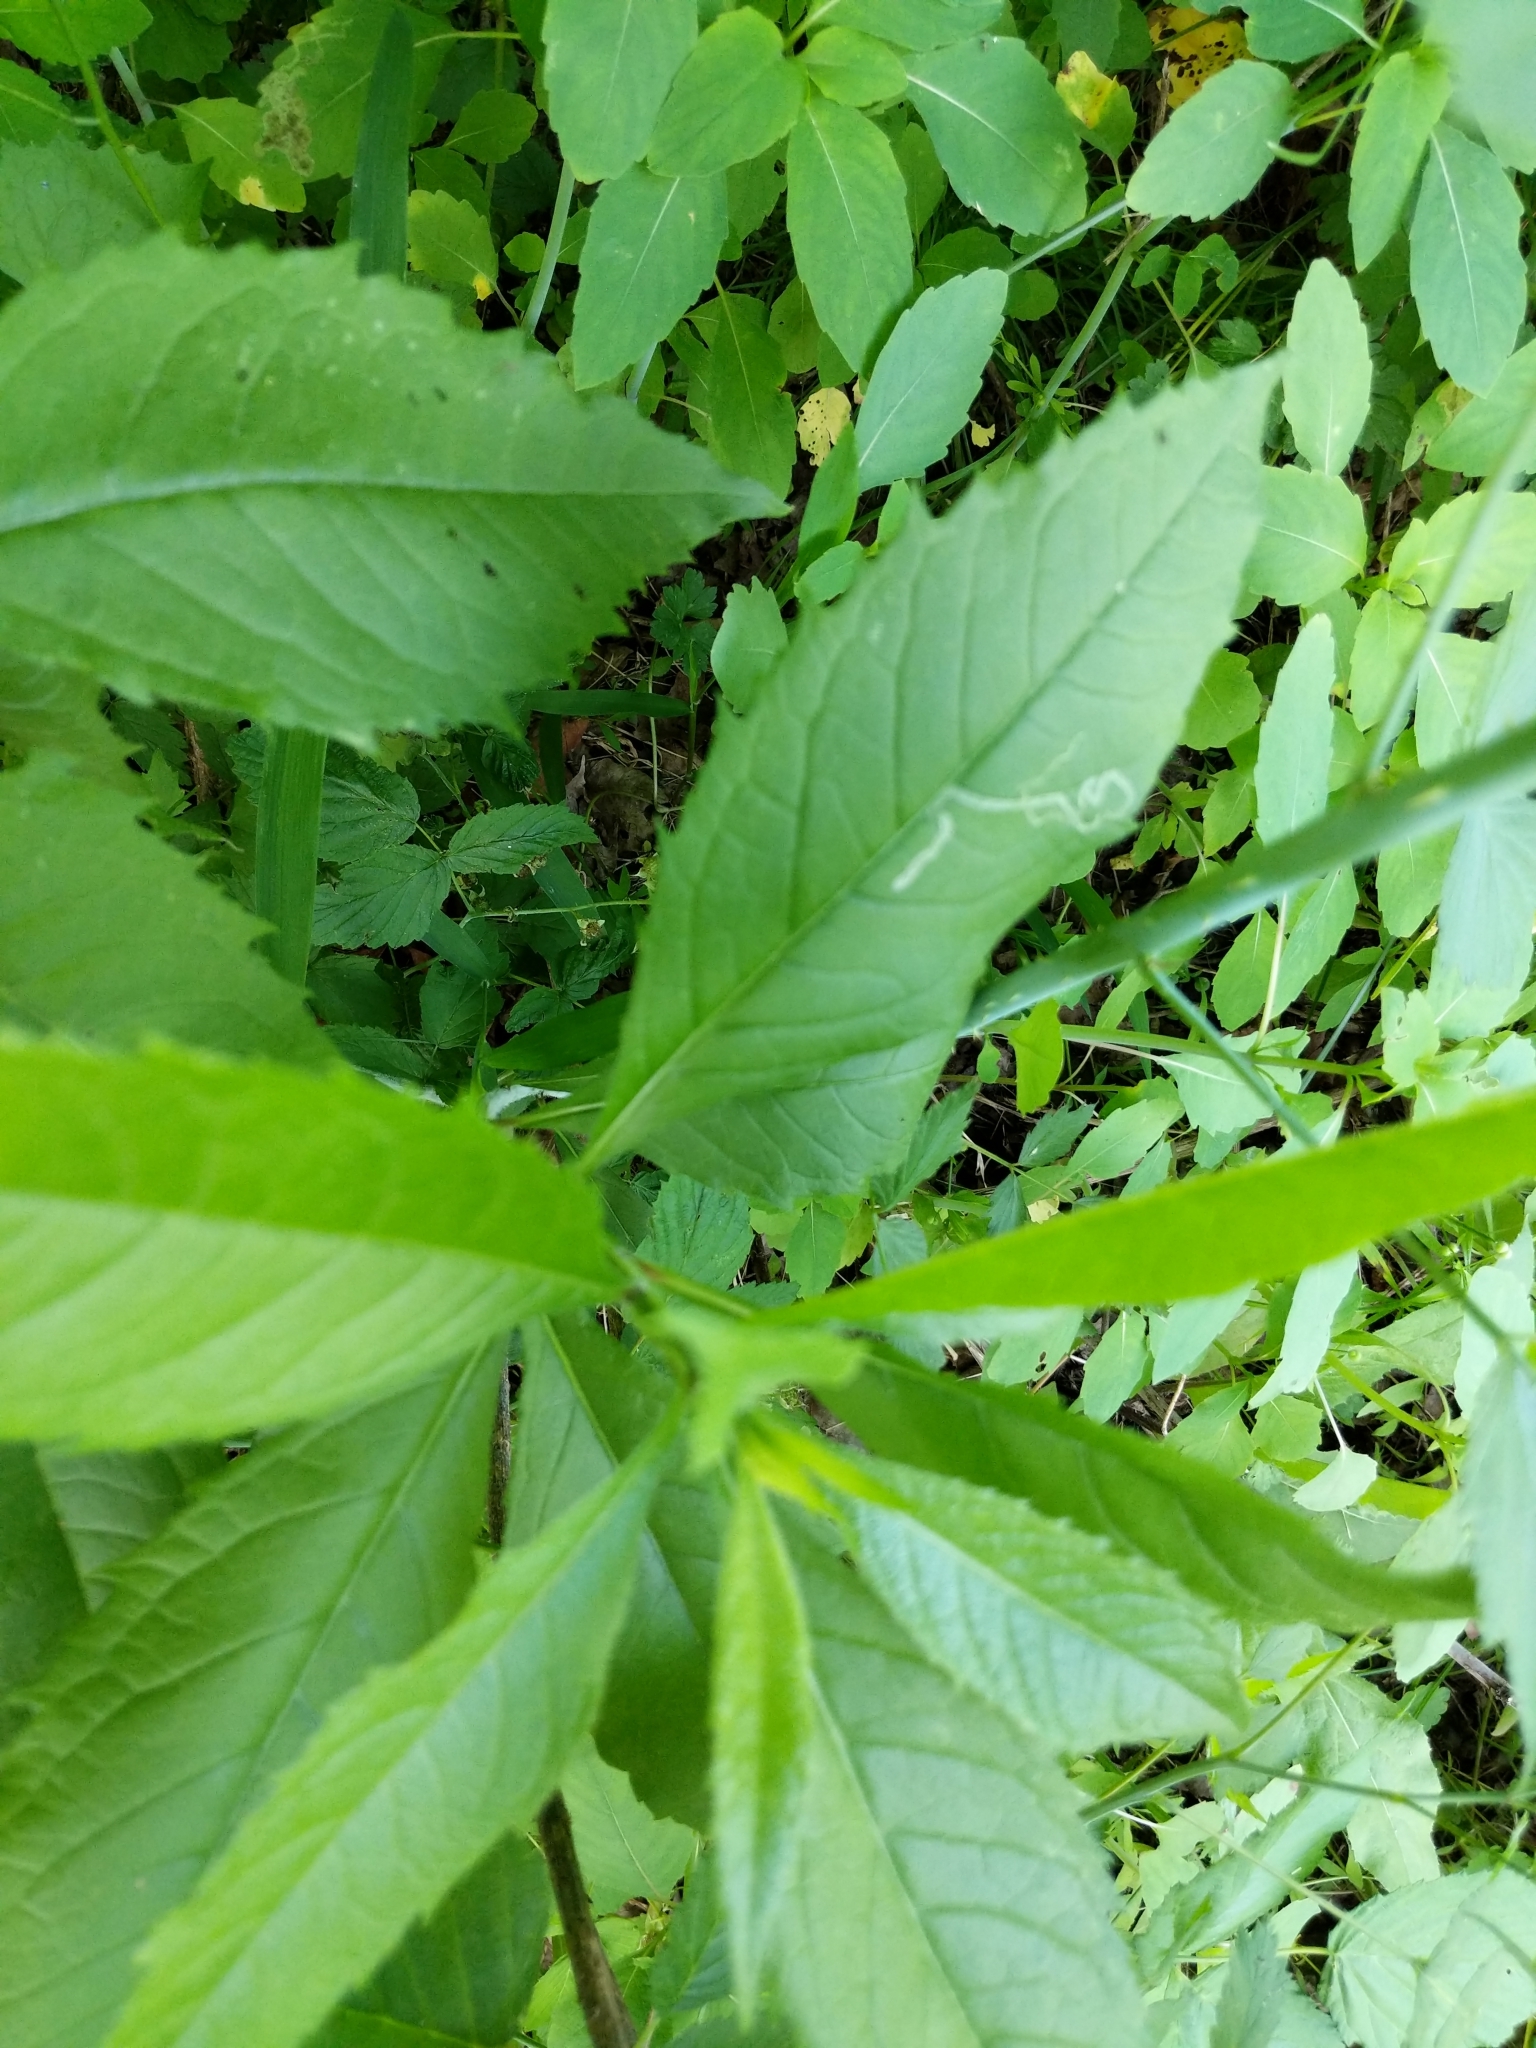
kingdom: Plantae
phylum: Tracheophyta
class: Magnoliopsida
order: Asterales
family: Asteraceae
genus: Verbesina
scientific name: Verbesina alternifolia
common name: Wingstem
